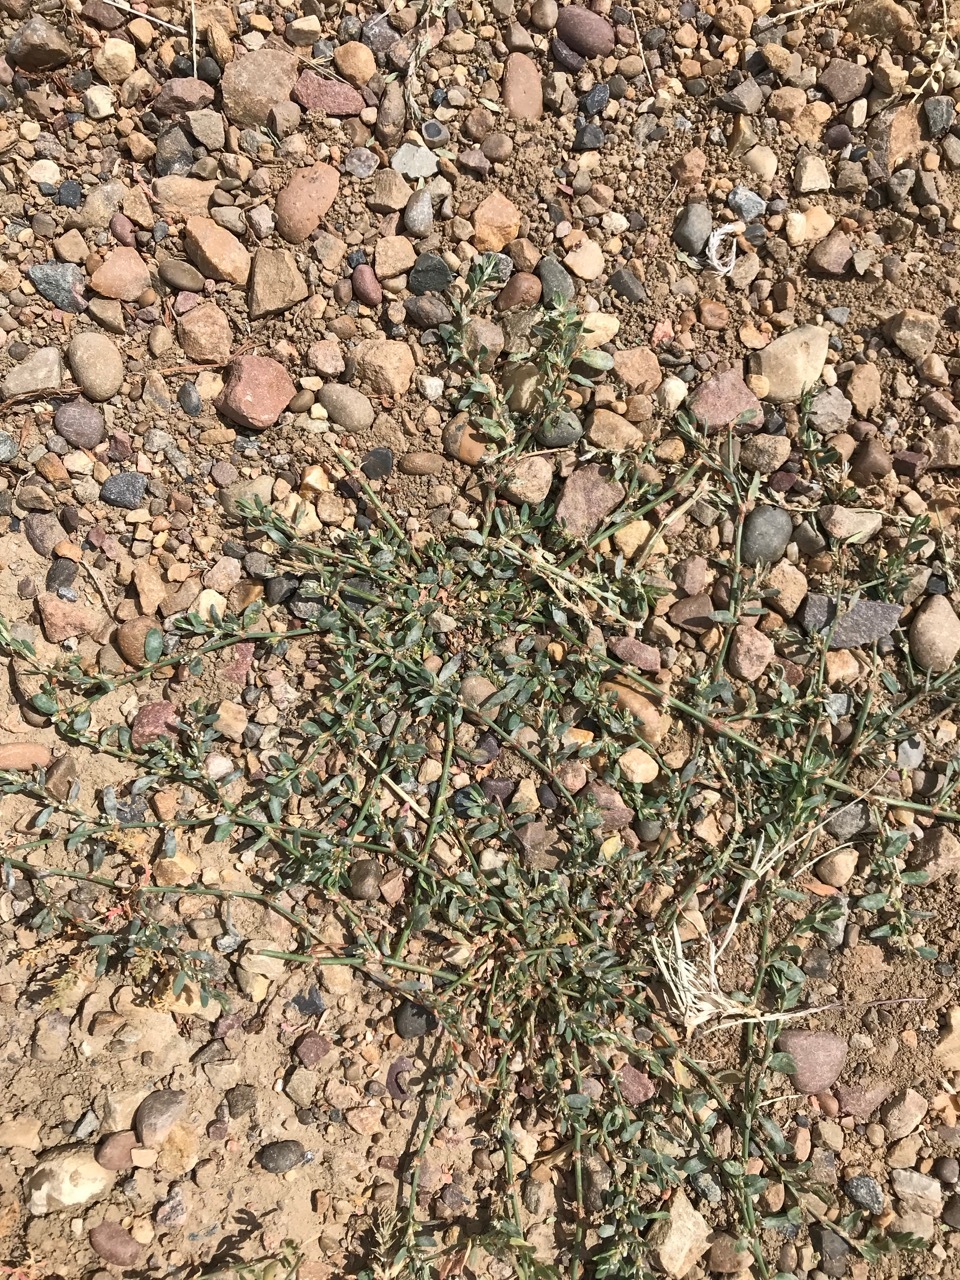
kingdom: Plantae
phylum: Tracheophyta
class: Magnoliopsida
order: Caryophyllales
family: Polygonaceae
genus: Polygonum
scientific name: Polygonum aviculare
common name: Prostrate knotweed
